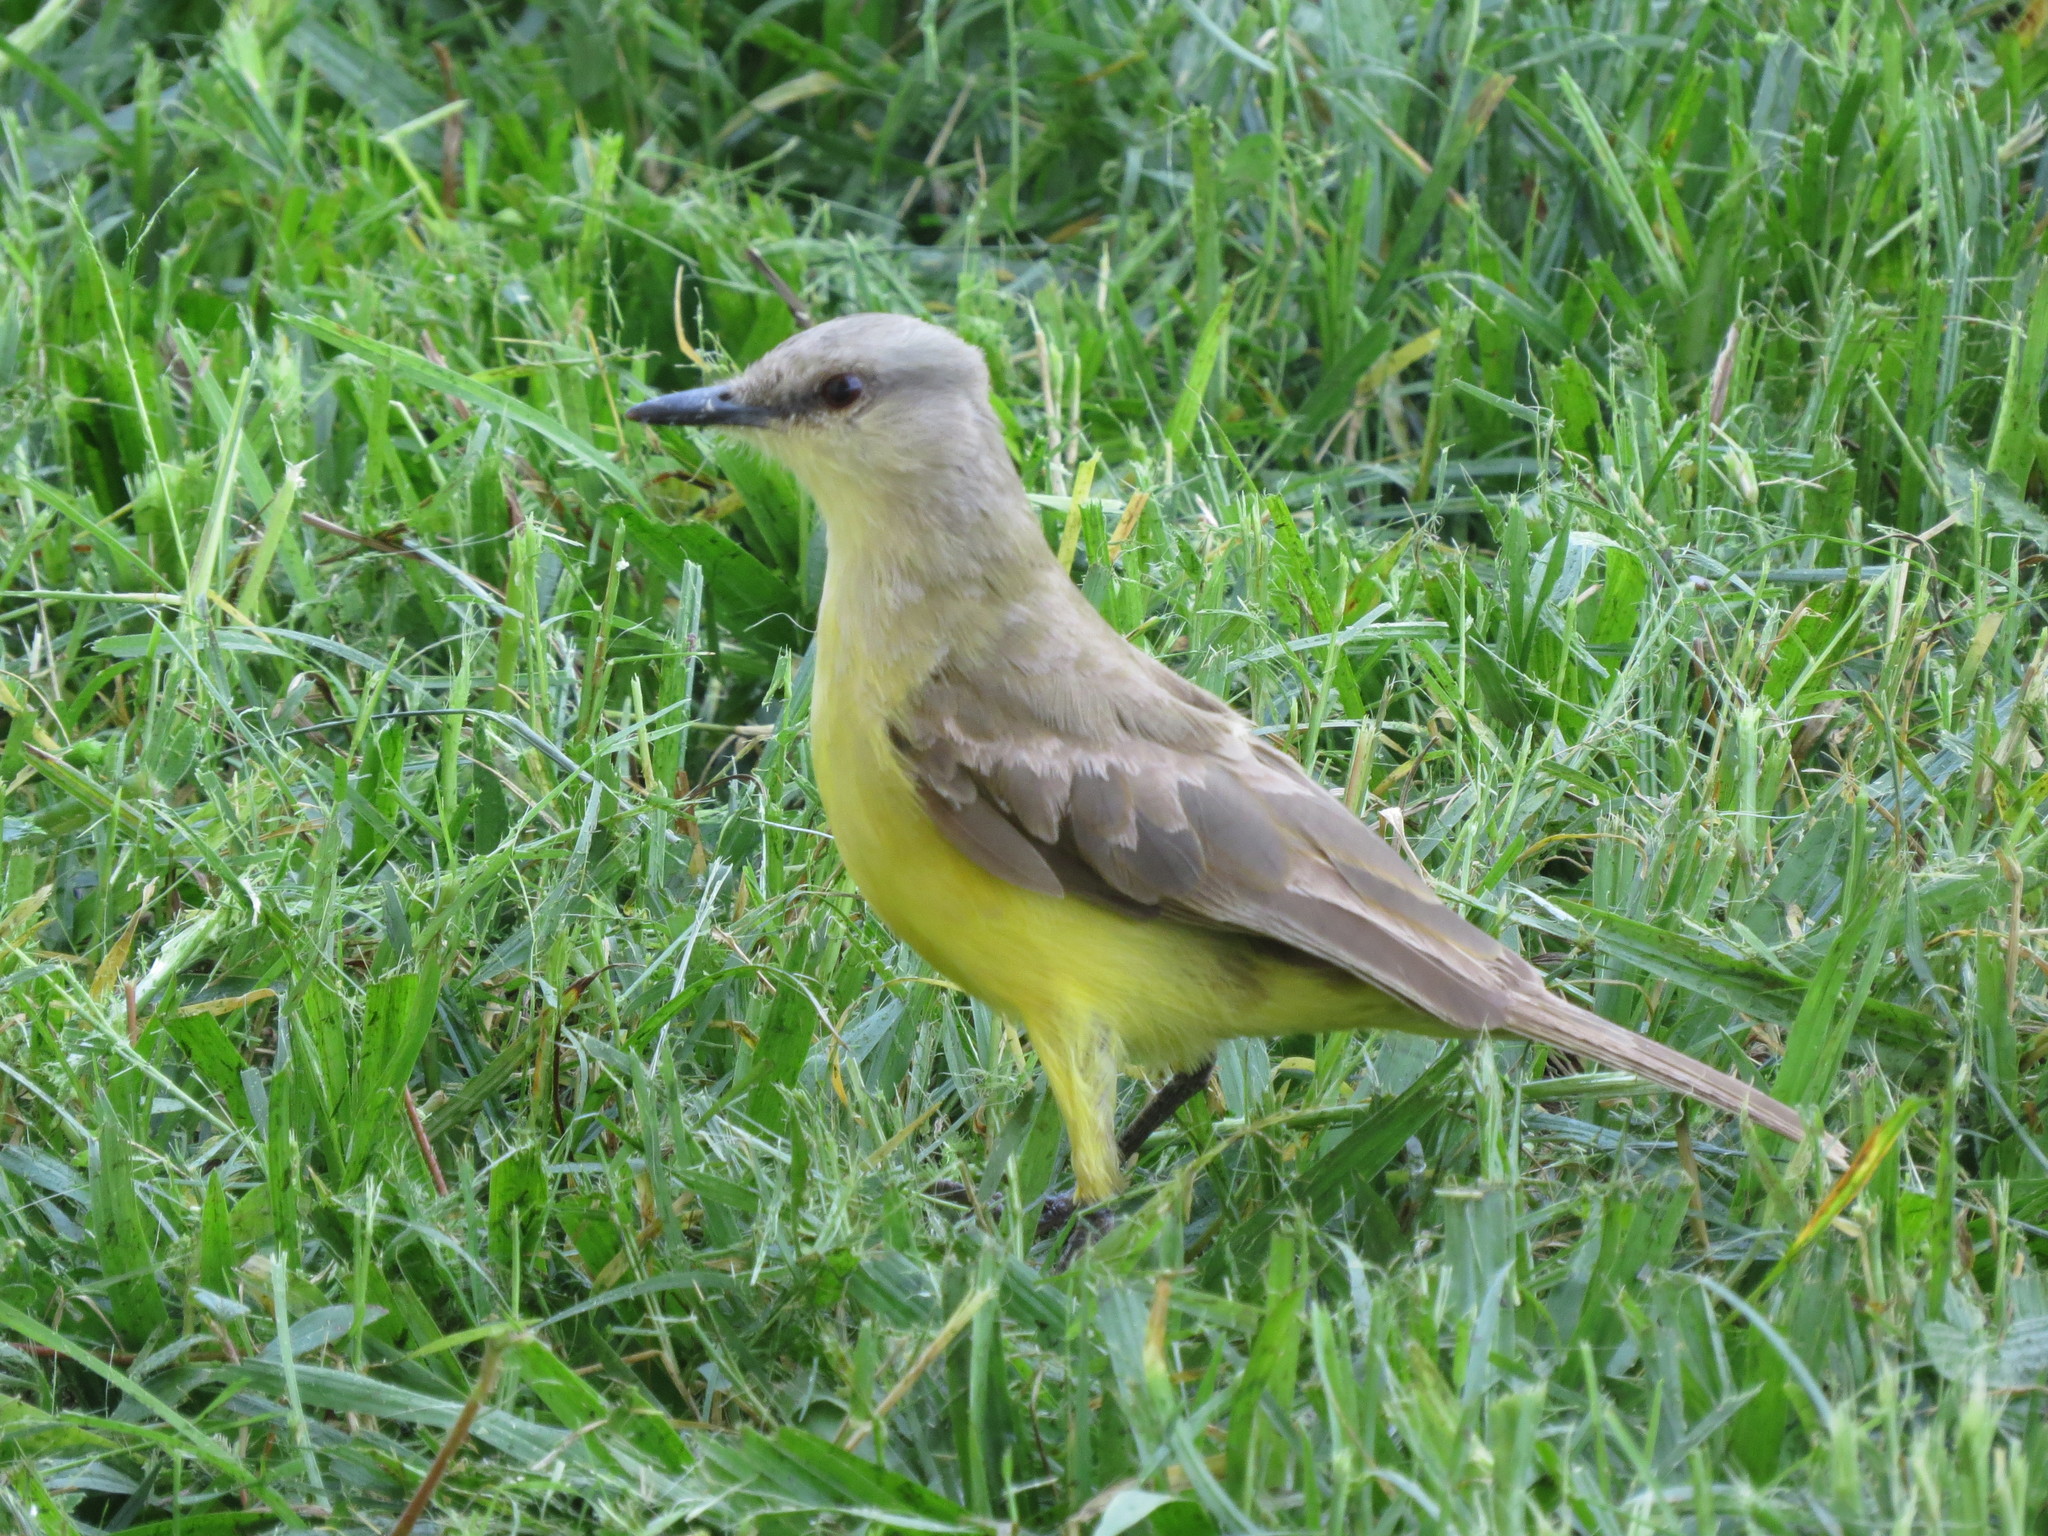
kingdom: Animalia
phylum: Chordata
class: Aves
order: Passeriformes
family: Tyrannidae
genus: Machetornis
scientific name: Machetornis rixosa
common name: Cattle tyrant
